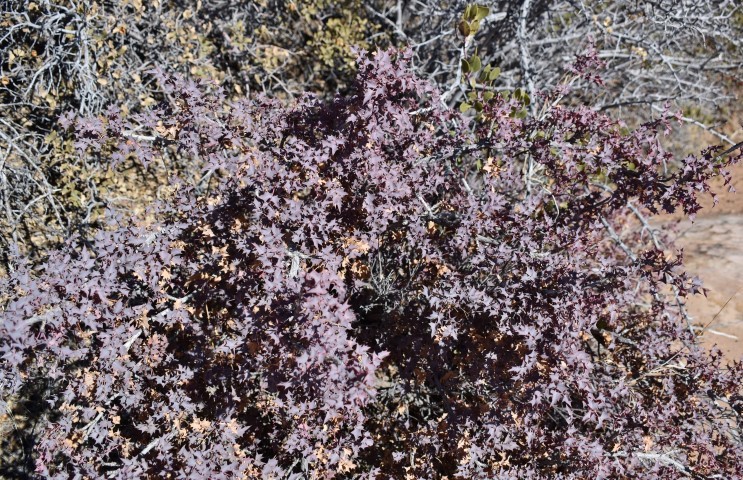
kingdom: Plantae
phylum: Tracheophyta
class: Magnoliopsida
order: Ranunculales
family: Berberidaceae
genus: Alloberberis
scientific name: Alloberberis fremontii
